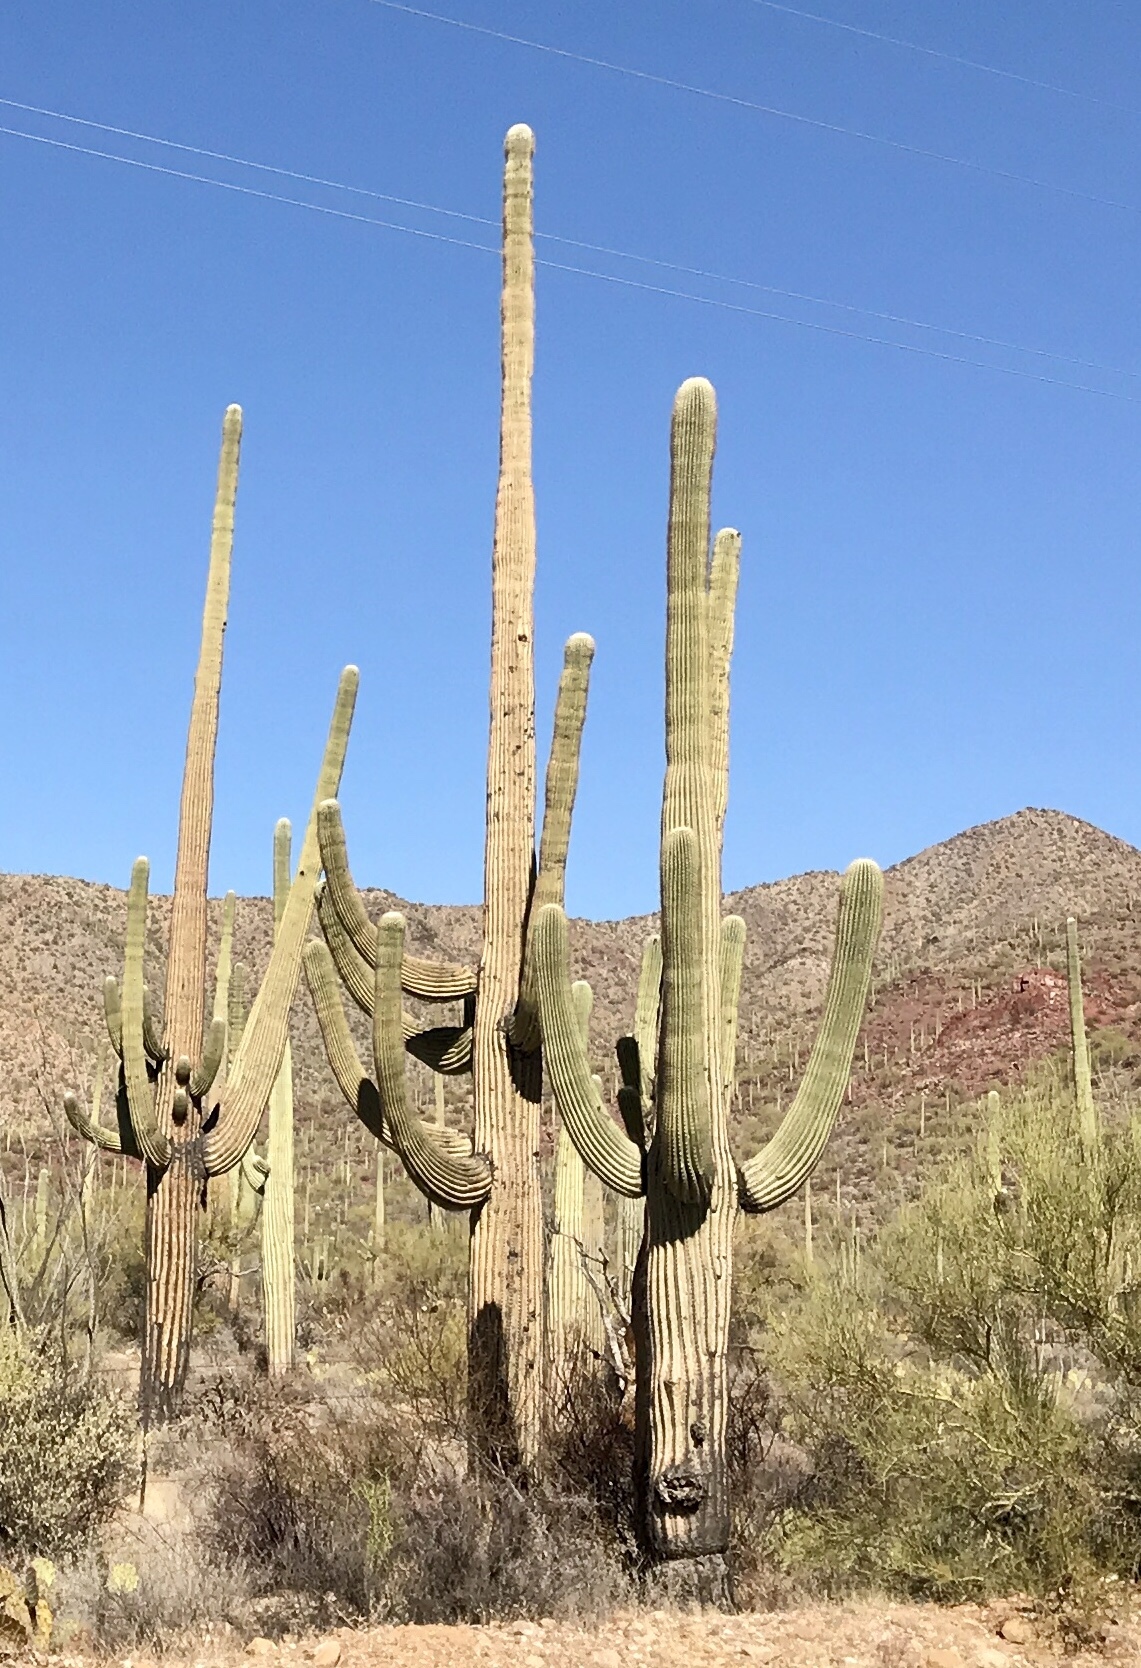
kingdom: Plantae
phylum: Tracheophyta
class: Magnoliopsida
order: Caryophyllales
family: Cactaceae
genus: Carnegiea
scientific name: Carnegiea gigantea
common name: Saguaro
